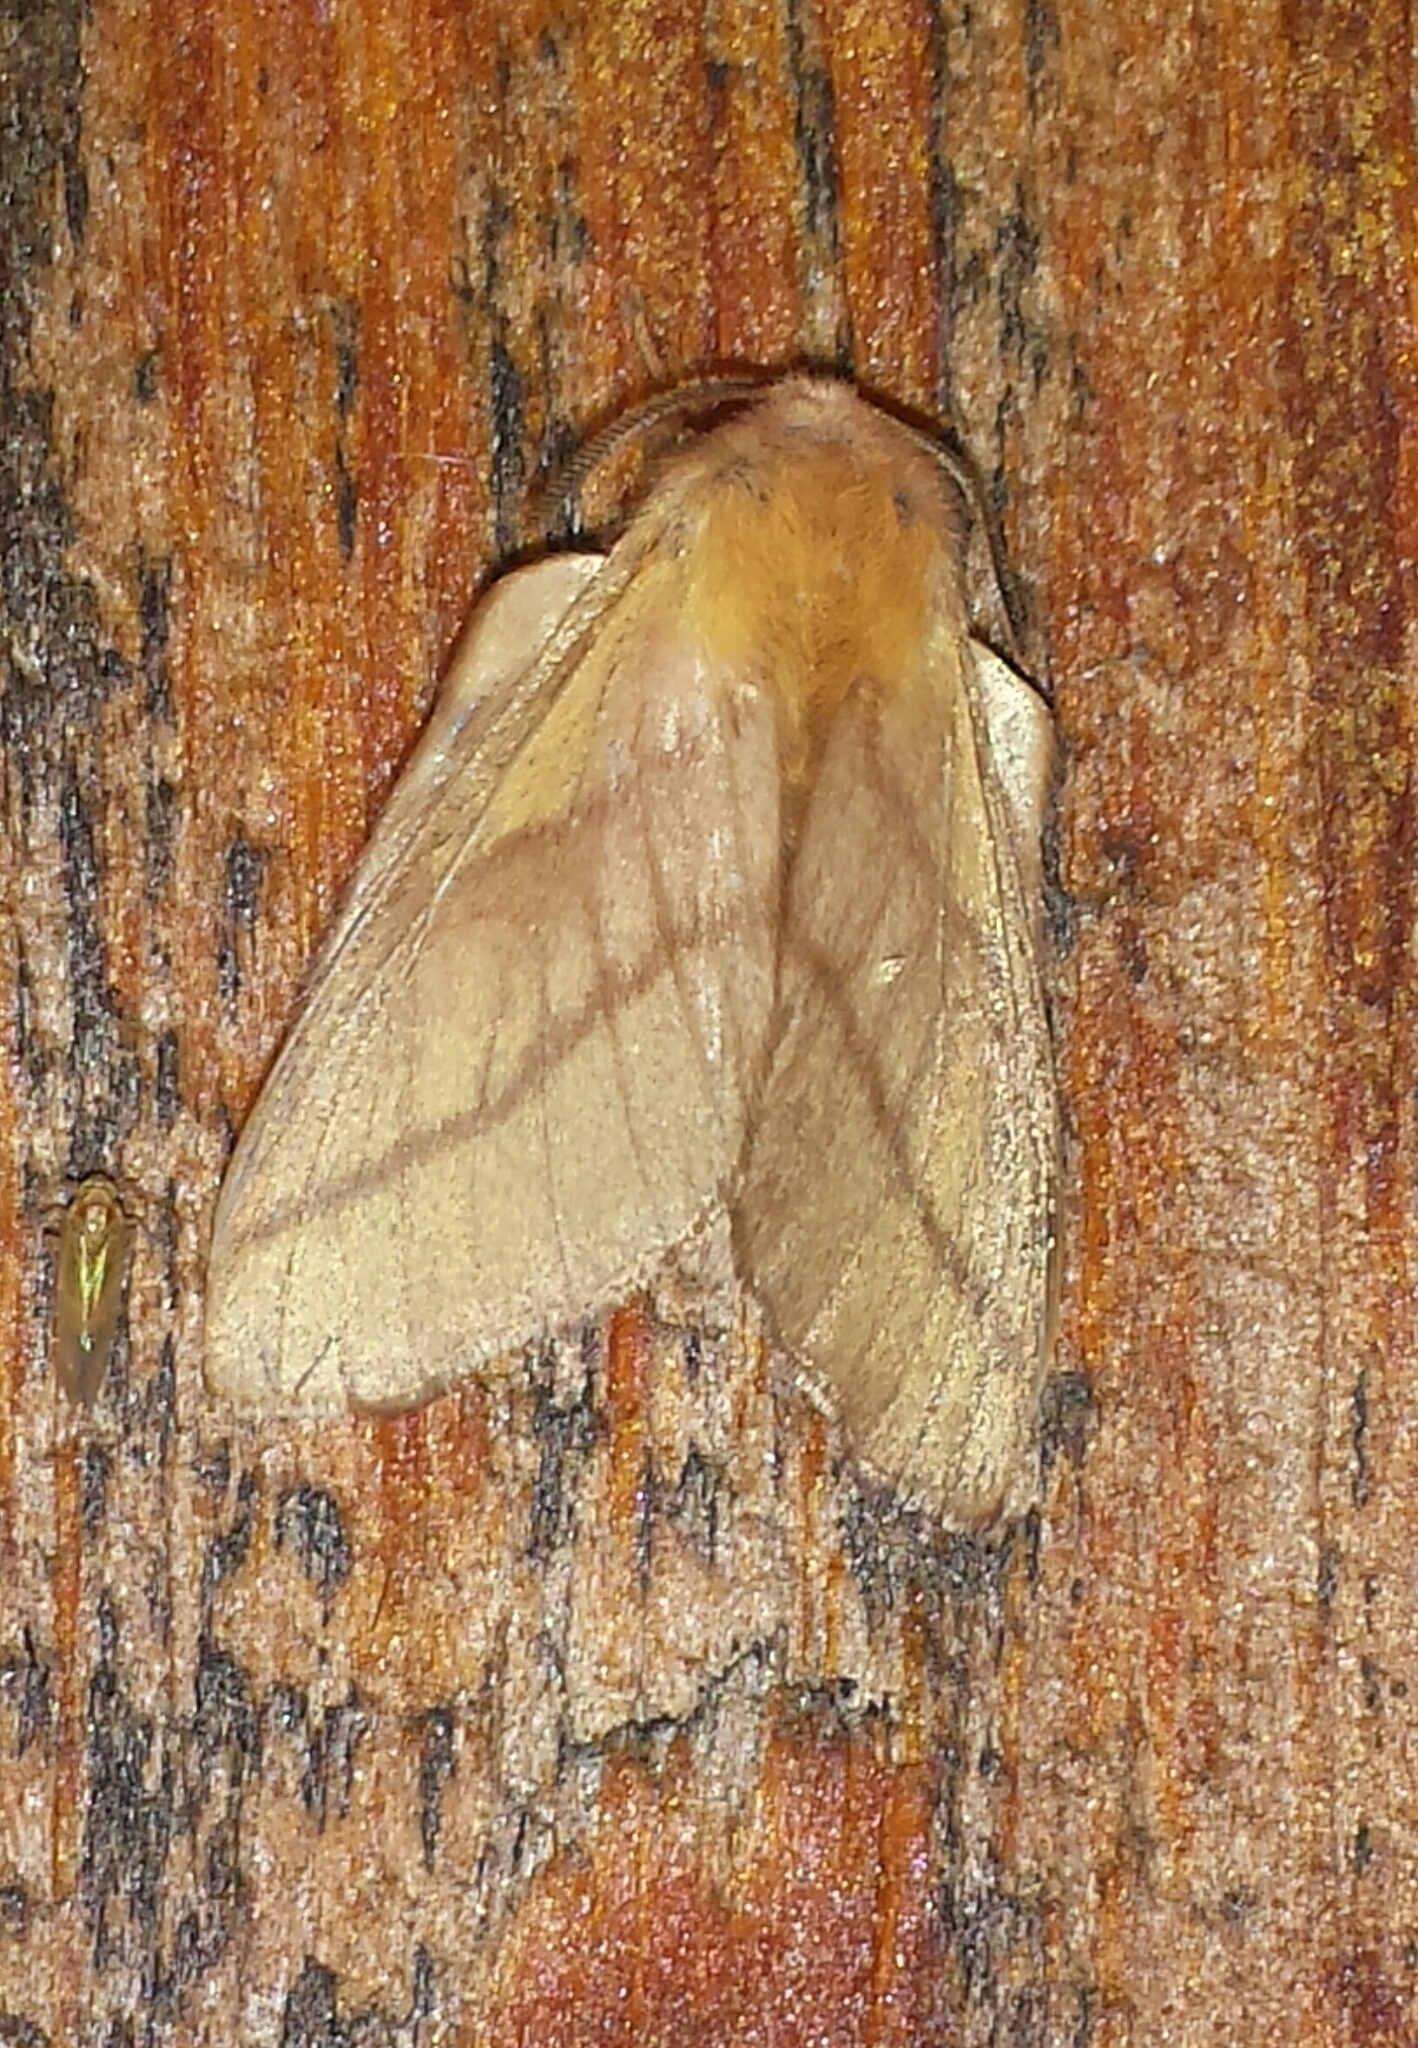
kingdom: Animalia
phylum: Arthropoda
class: Insecta
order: Lepidoptera
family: Lasiocampidae
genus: Malacosoma
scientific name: Malacosoma disstria
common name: Forest tent caterpillar
